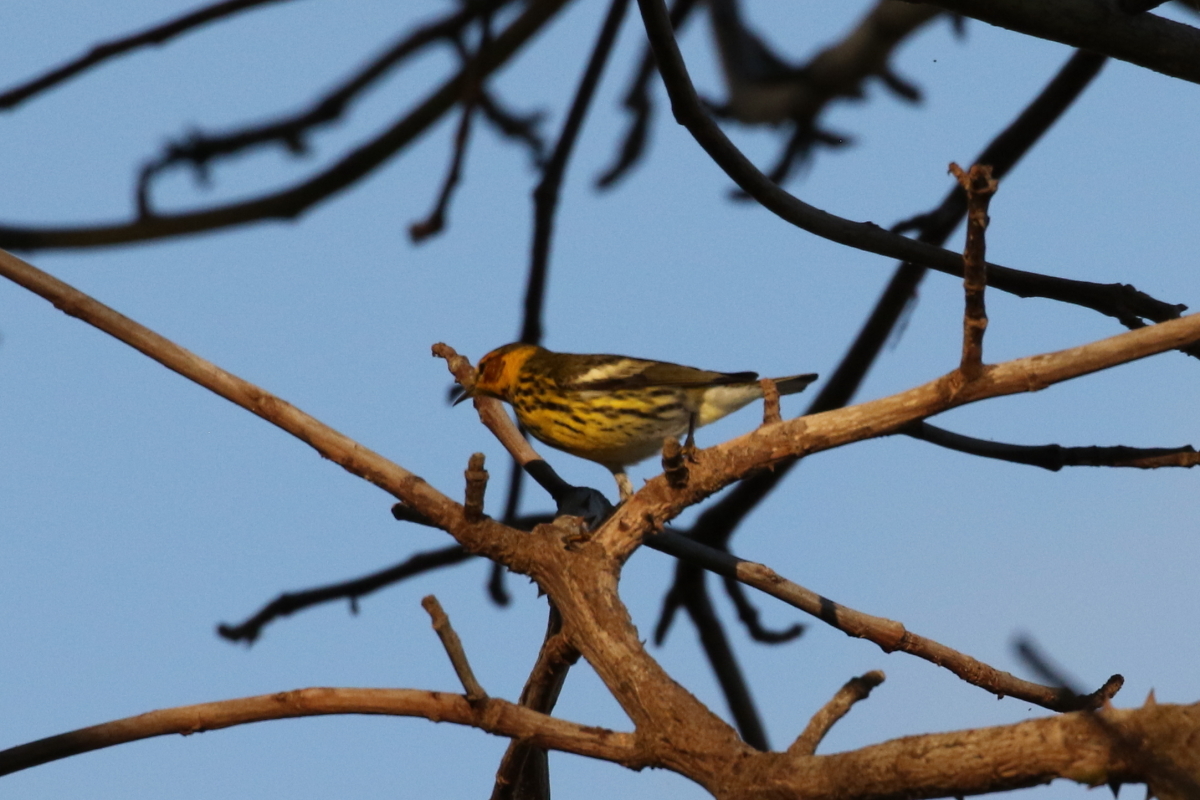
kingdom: Animalia
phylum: Chordata
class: Aves
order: Passeriformes
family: Parulidae
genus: Setophaga
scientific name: Setophaga tigrina
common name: Cape may warbler
